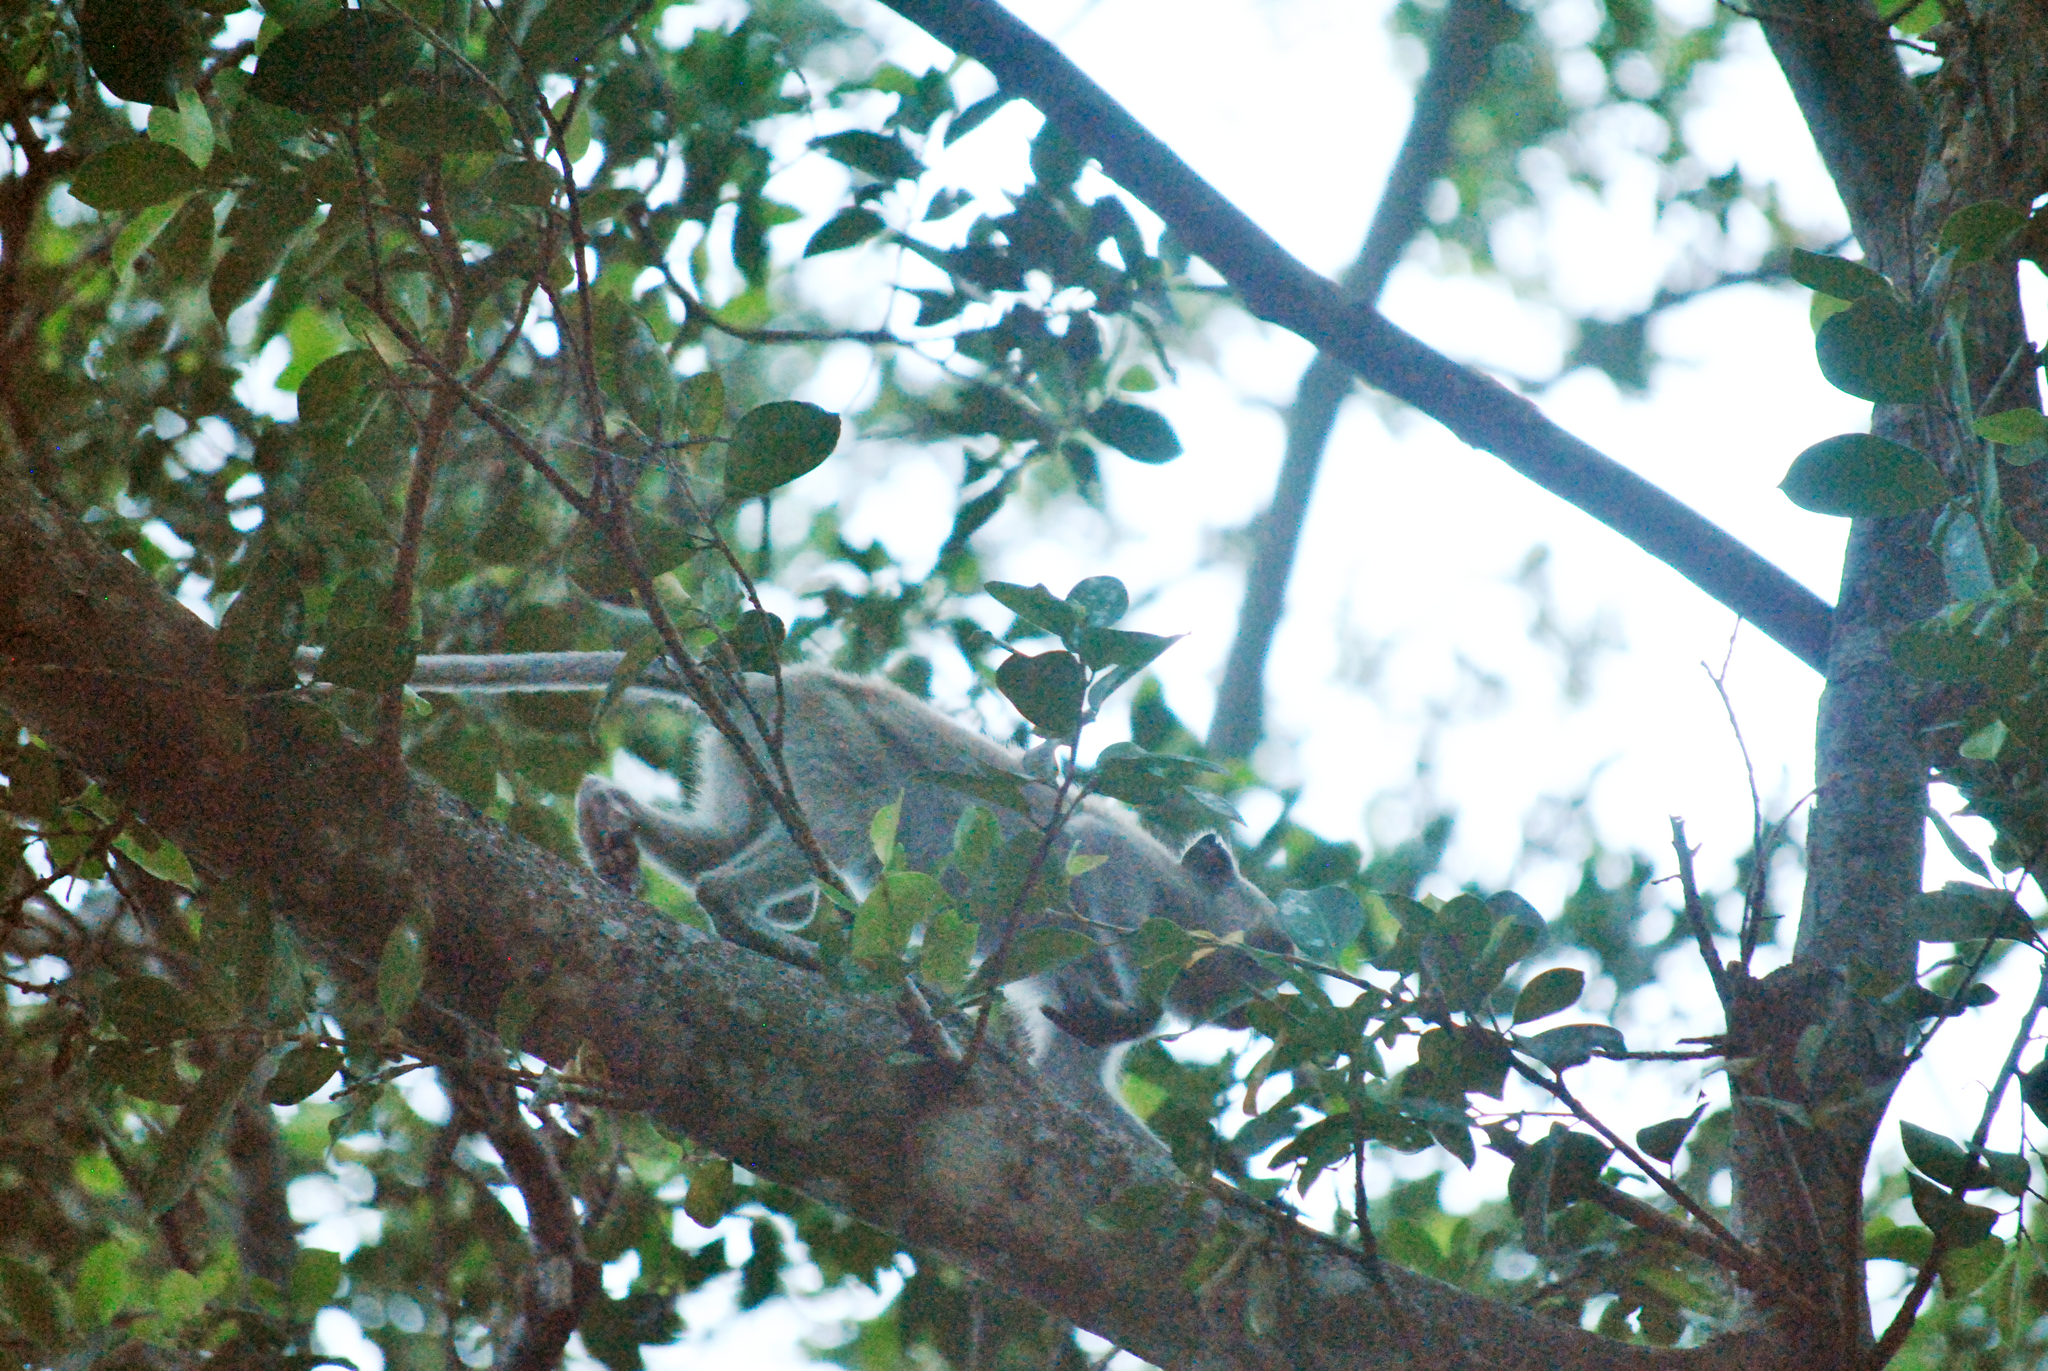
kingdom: Animalia
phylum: Chordata
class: Mammalia
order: Primates
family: Cercopithecidae
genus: Macaca
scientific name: Macaca fascicularis
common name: Crab-eating macaque
